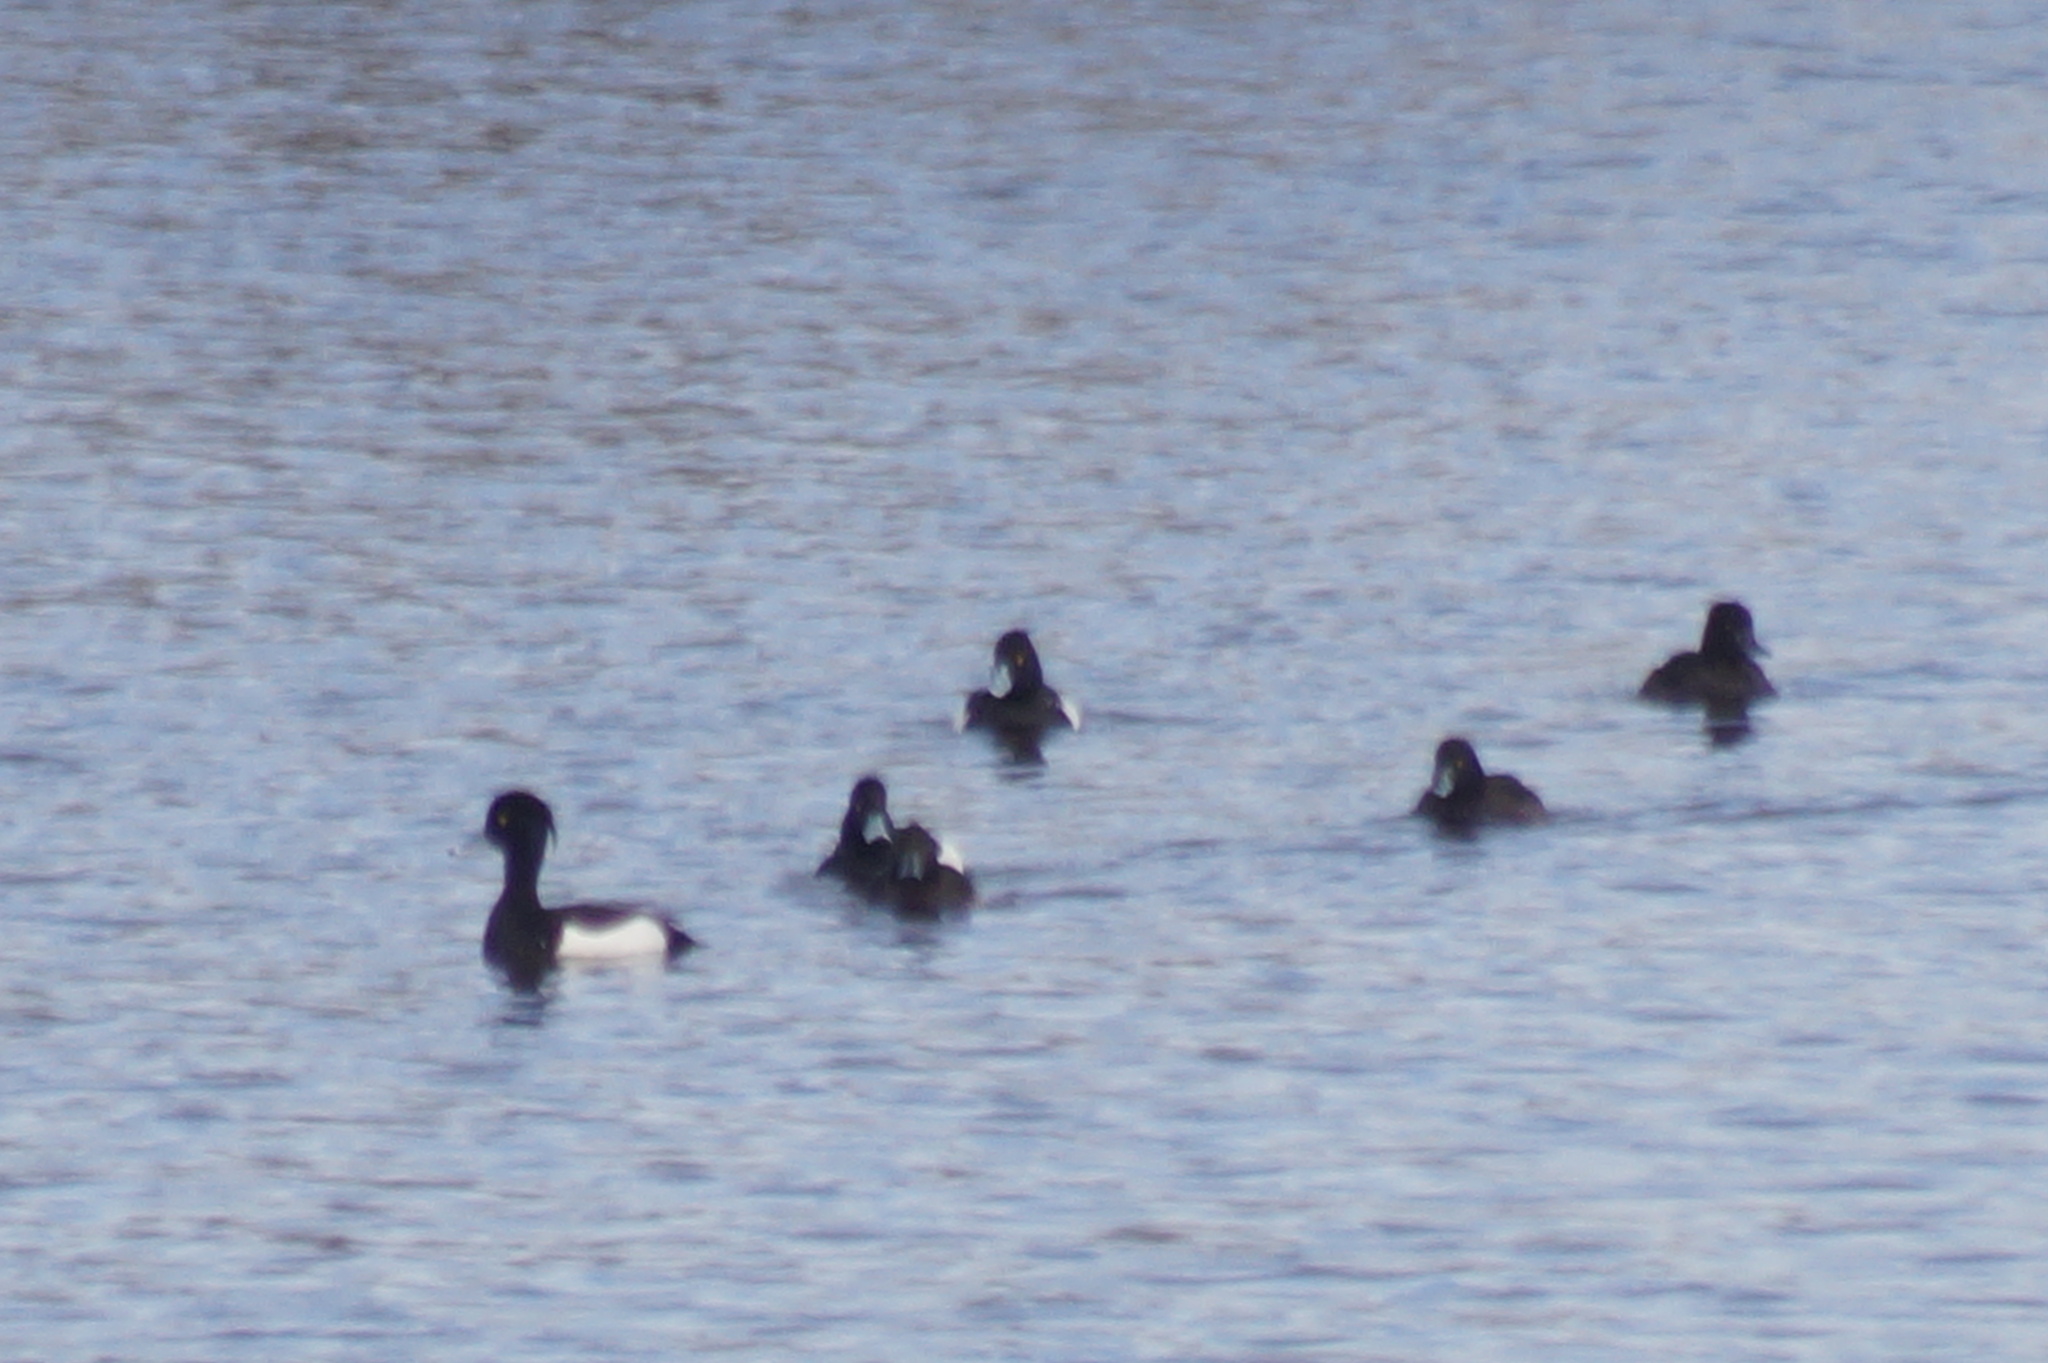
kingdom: Animalia
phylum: Chordata
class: Aves
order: Anseriformes
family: Anatidae
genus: Aythya
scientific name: Aythya fuligula
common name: Tufted duck
